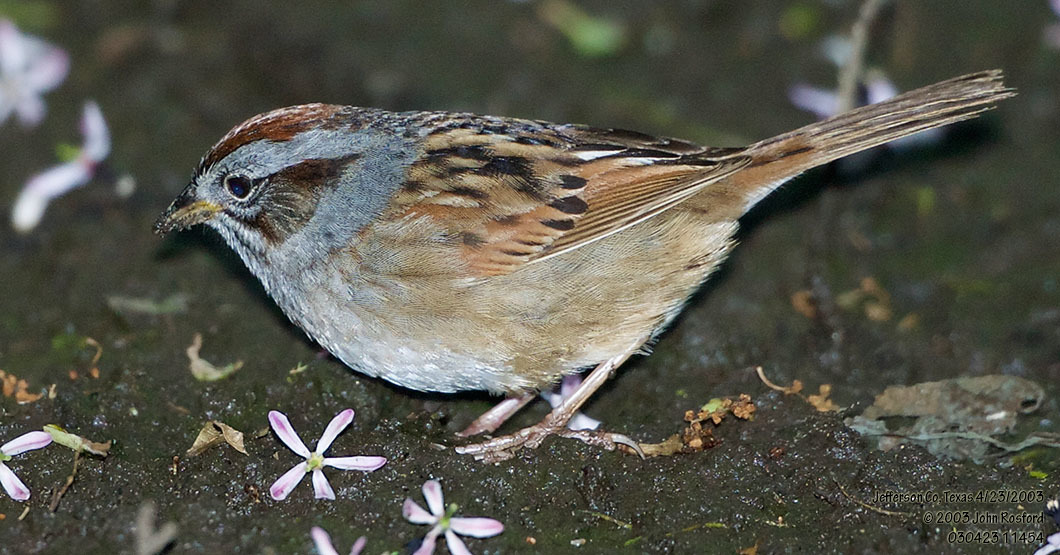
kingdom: Animalia
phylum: Chordata
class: Aves
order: Passeriformes
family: Passerellidae
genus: Melospiza
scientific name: Melospiza georgiana
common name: Swamp sparrow
